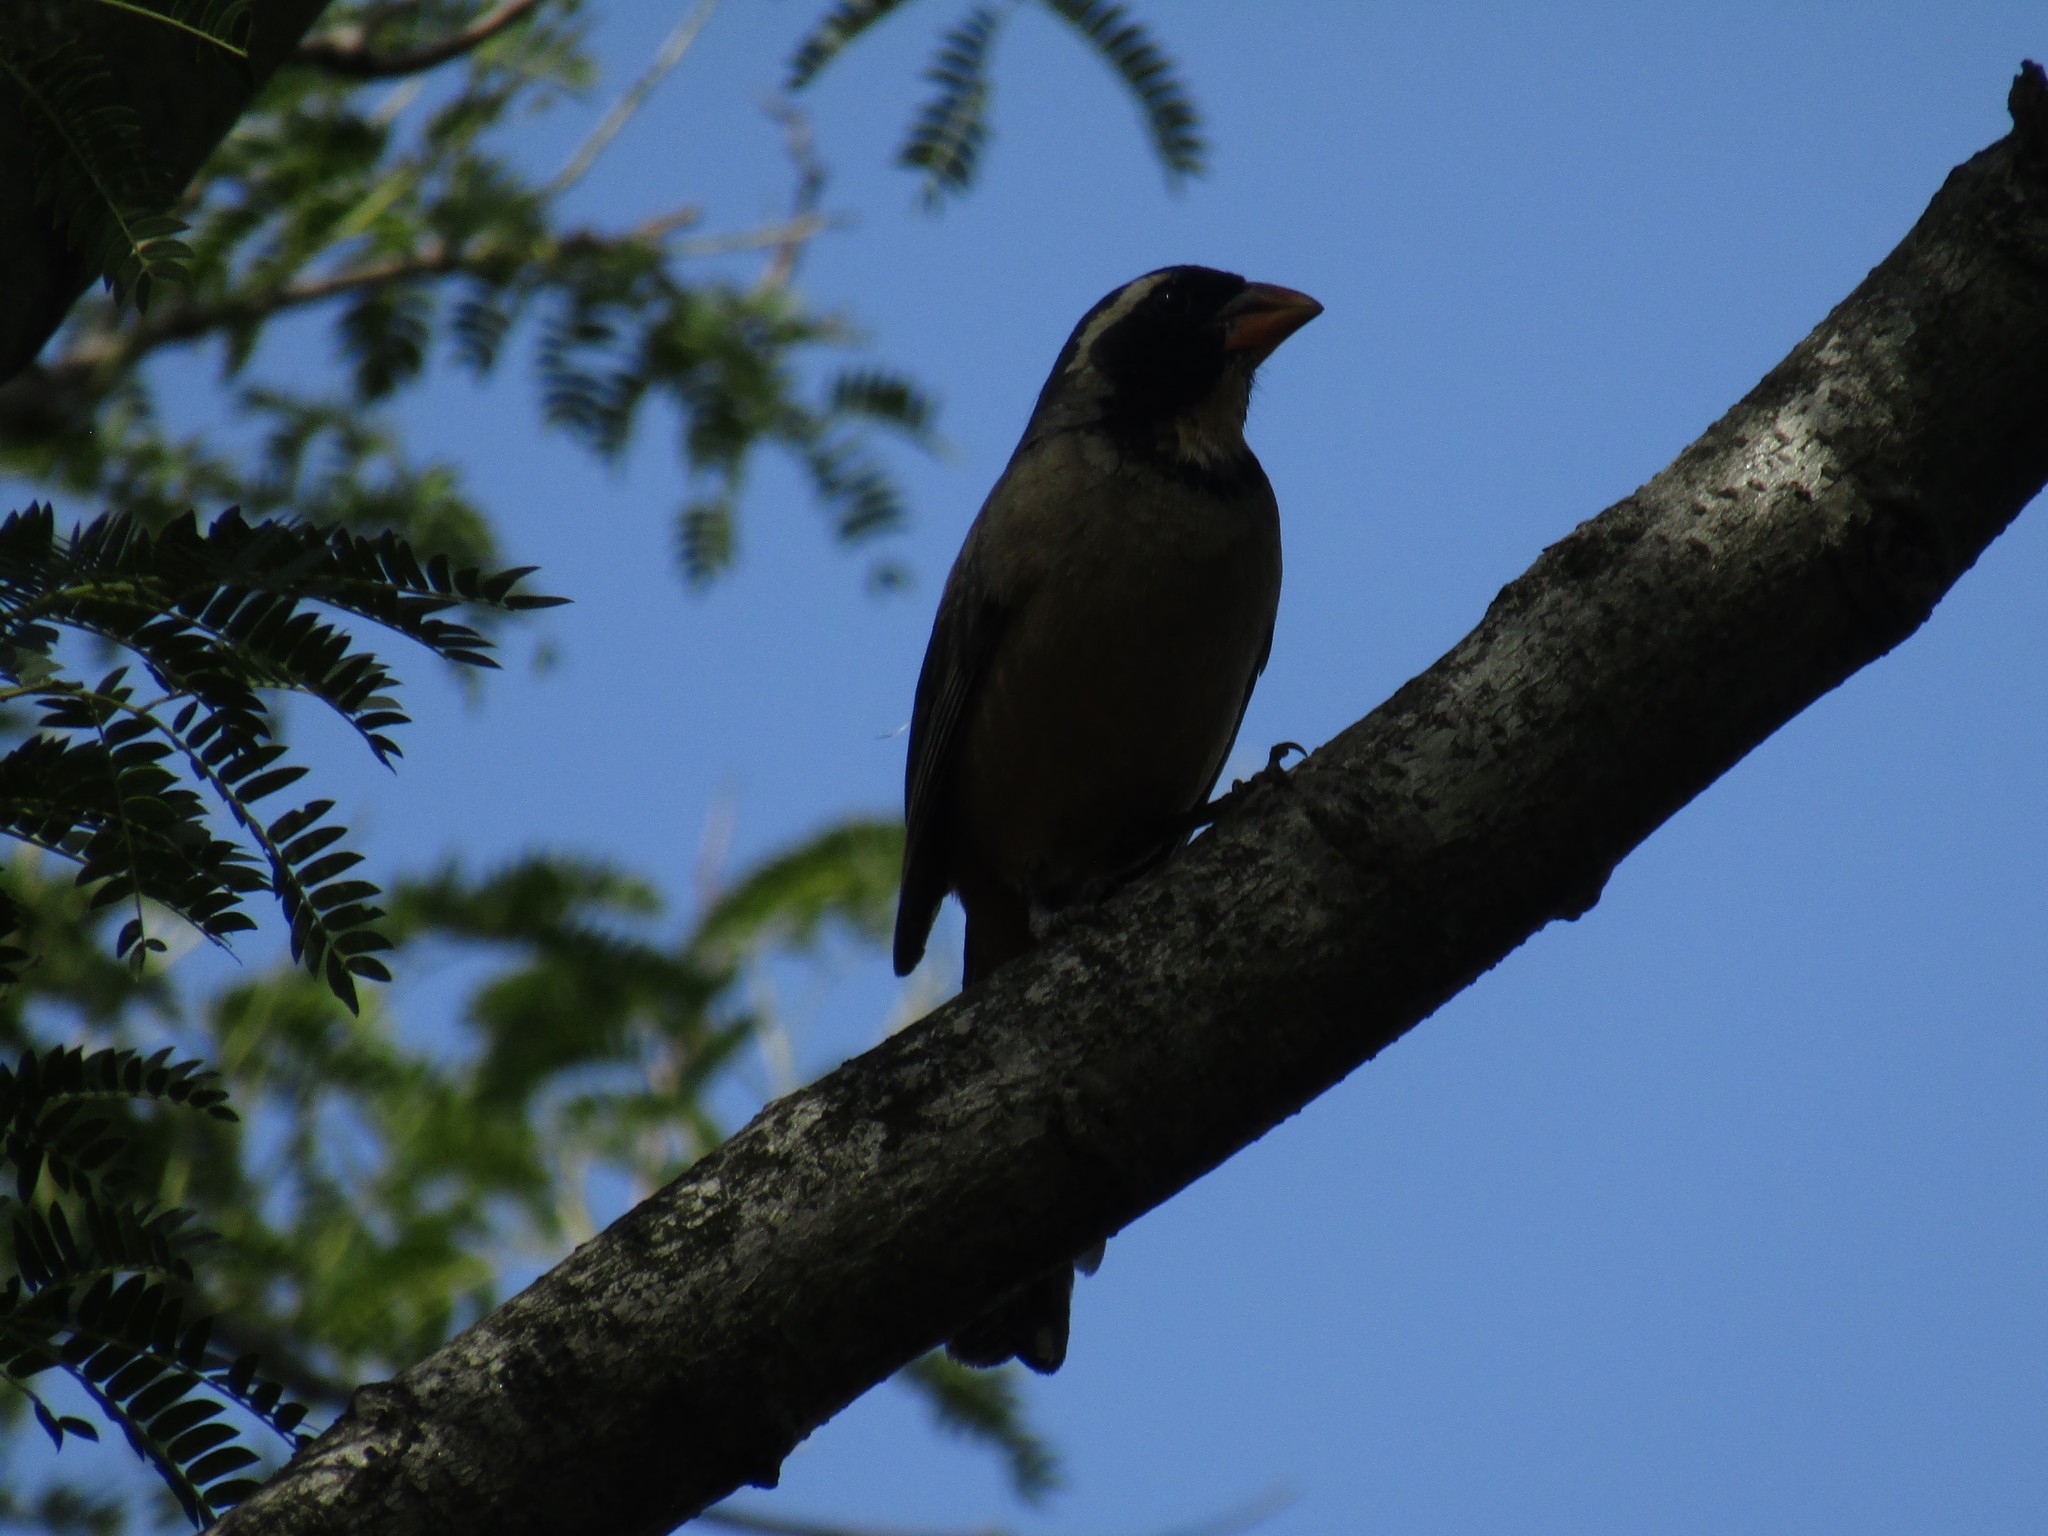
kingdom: Animalia
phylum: Chordata
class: Aves
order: Passeriformes
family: Thraupidae
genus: Saltator
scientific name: Saltator aurantiirostris
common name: Golden-billed saltator
